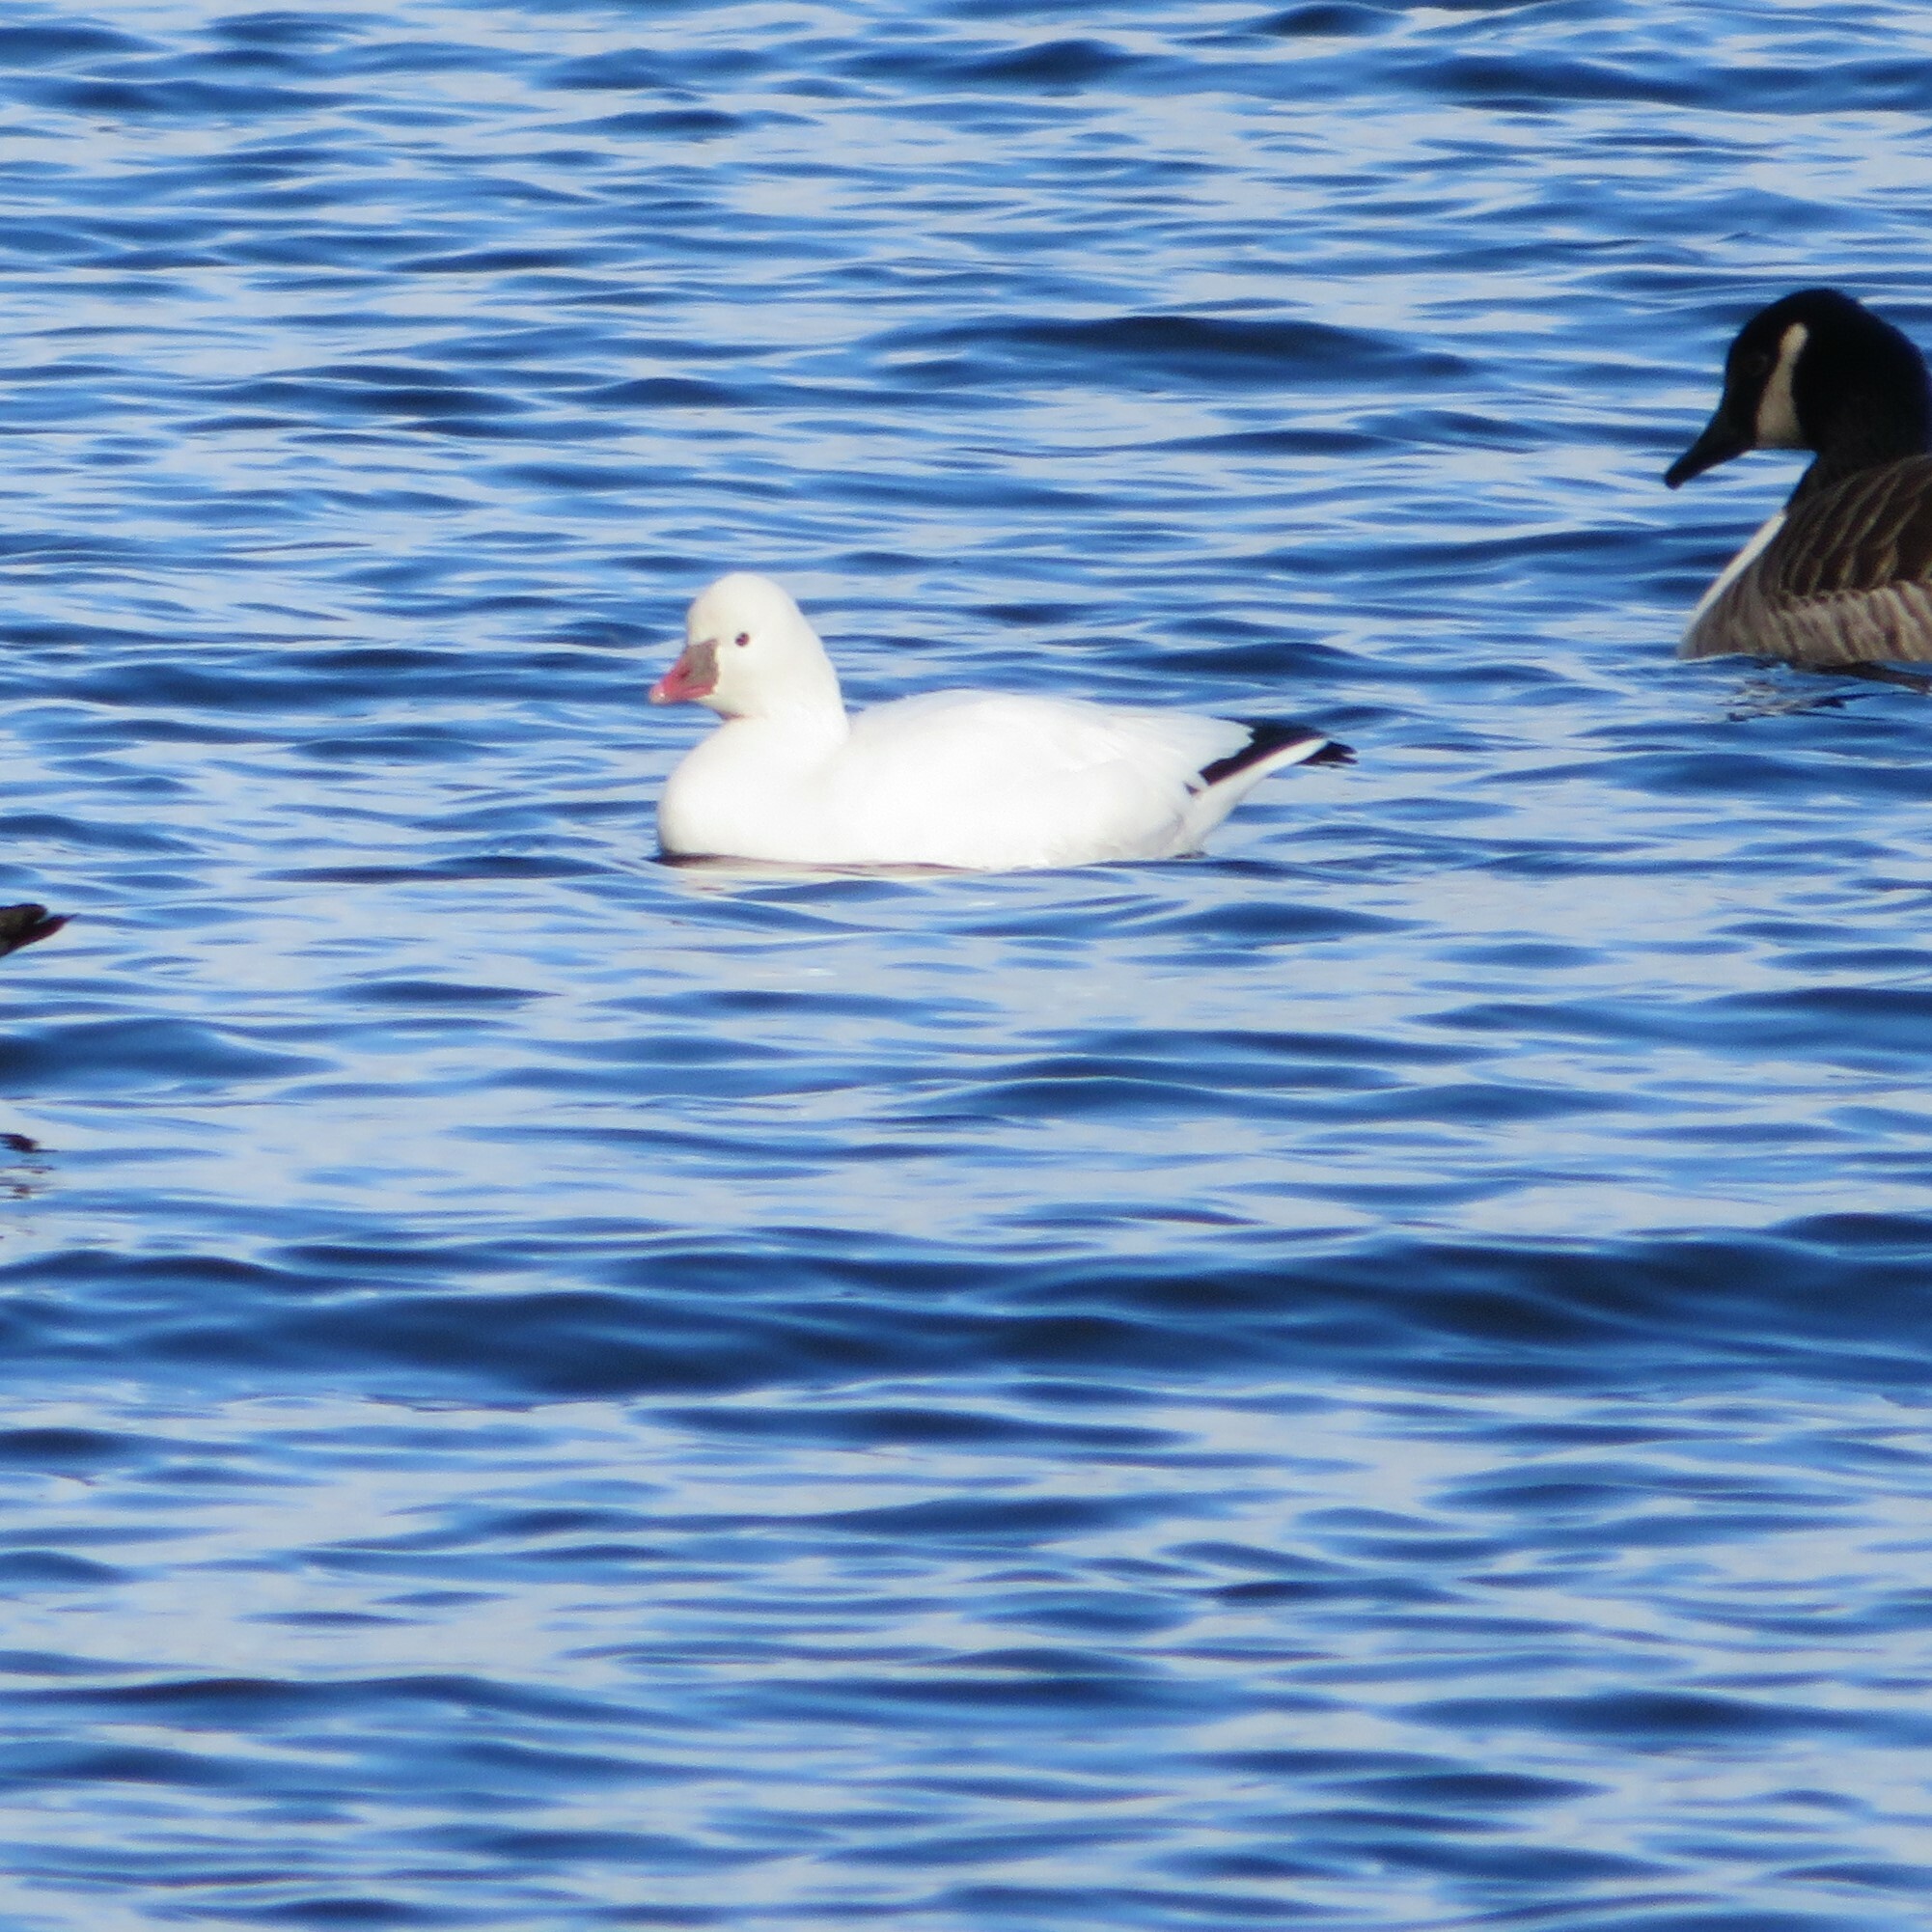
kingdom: Animalia
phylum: Chordata
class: Aves
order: Anseriformes
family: Anatidae
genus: Anser
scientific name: Anser rossii
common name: Ross's goose
